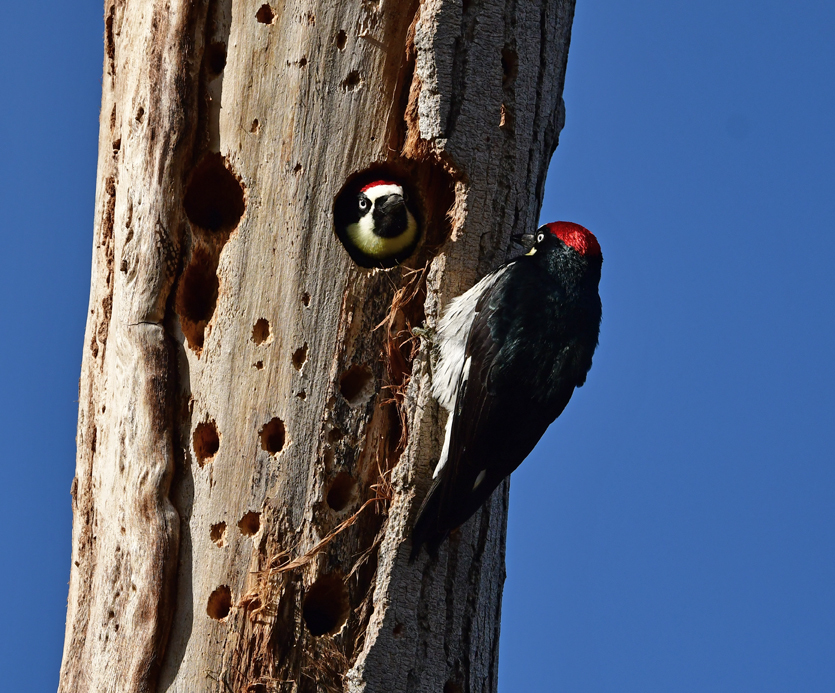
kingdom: Animalia
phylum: Chordata
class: Aves
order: Piciformes
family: Picidae
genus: Melanerpes
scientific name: Melanerpes formicivorus
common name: Acorn woodpecker
